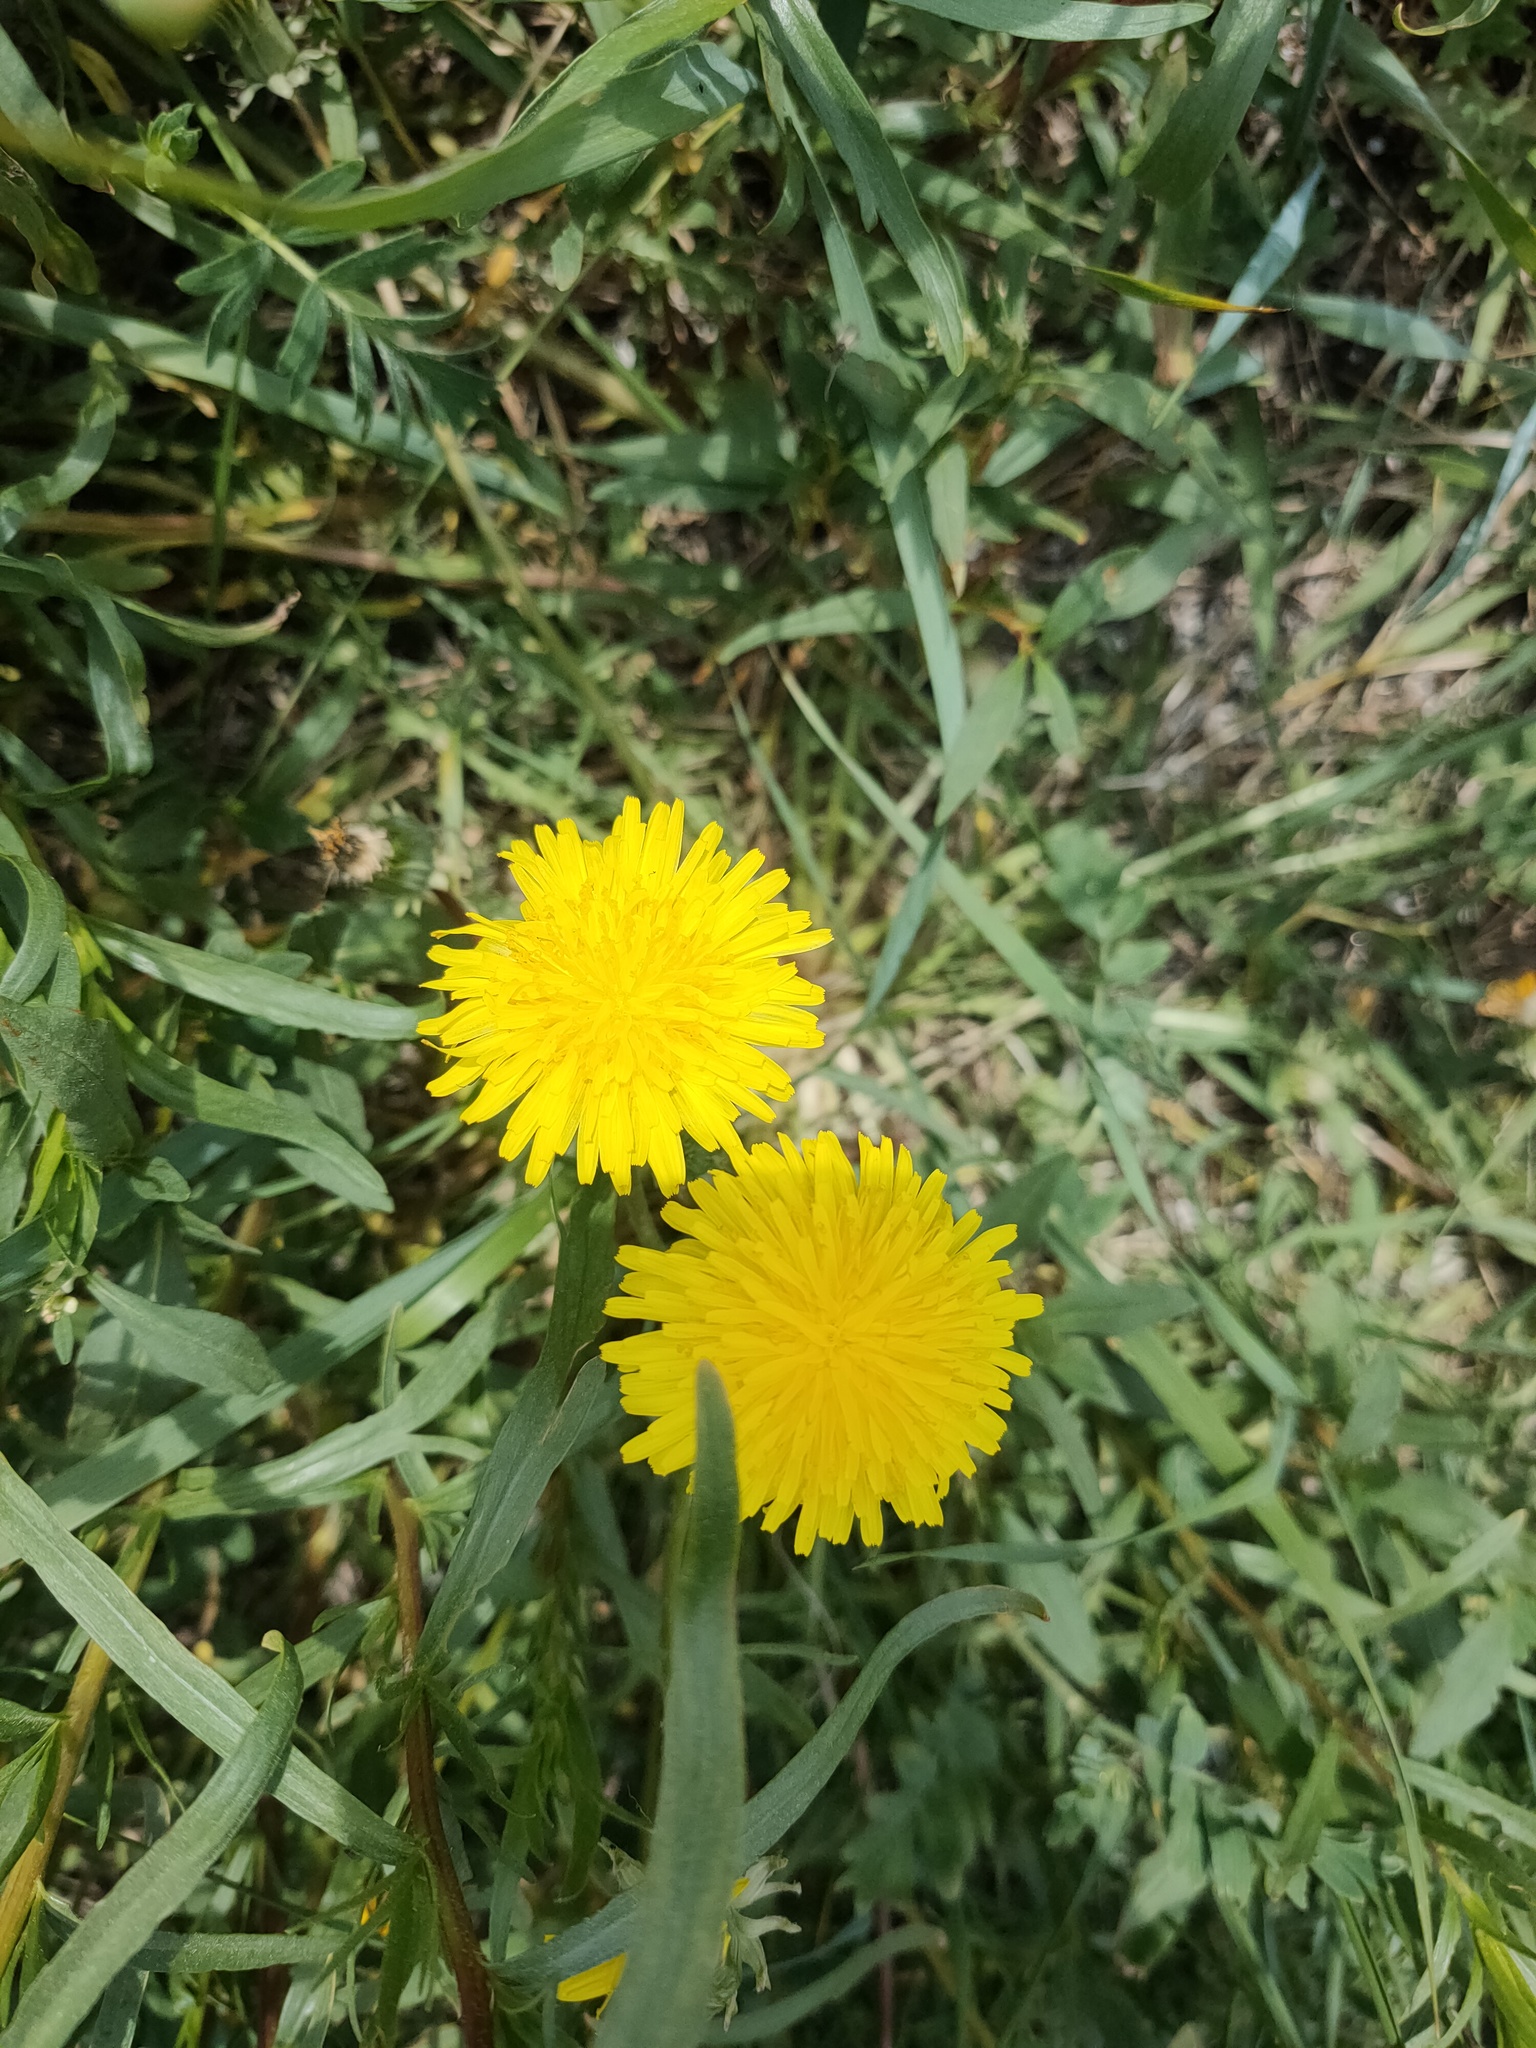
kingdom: Plantae
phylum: Tracheophyta
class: Magnoliopsida
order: Asterales
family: Asteraceae
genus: Taraxacum
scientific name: Taraxacum officinale
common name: Common dandelion
